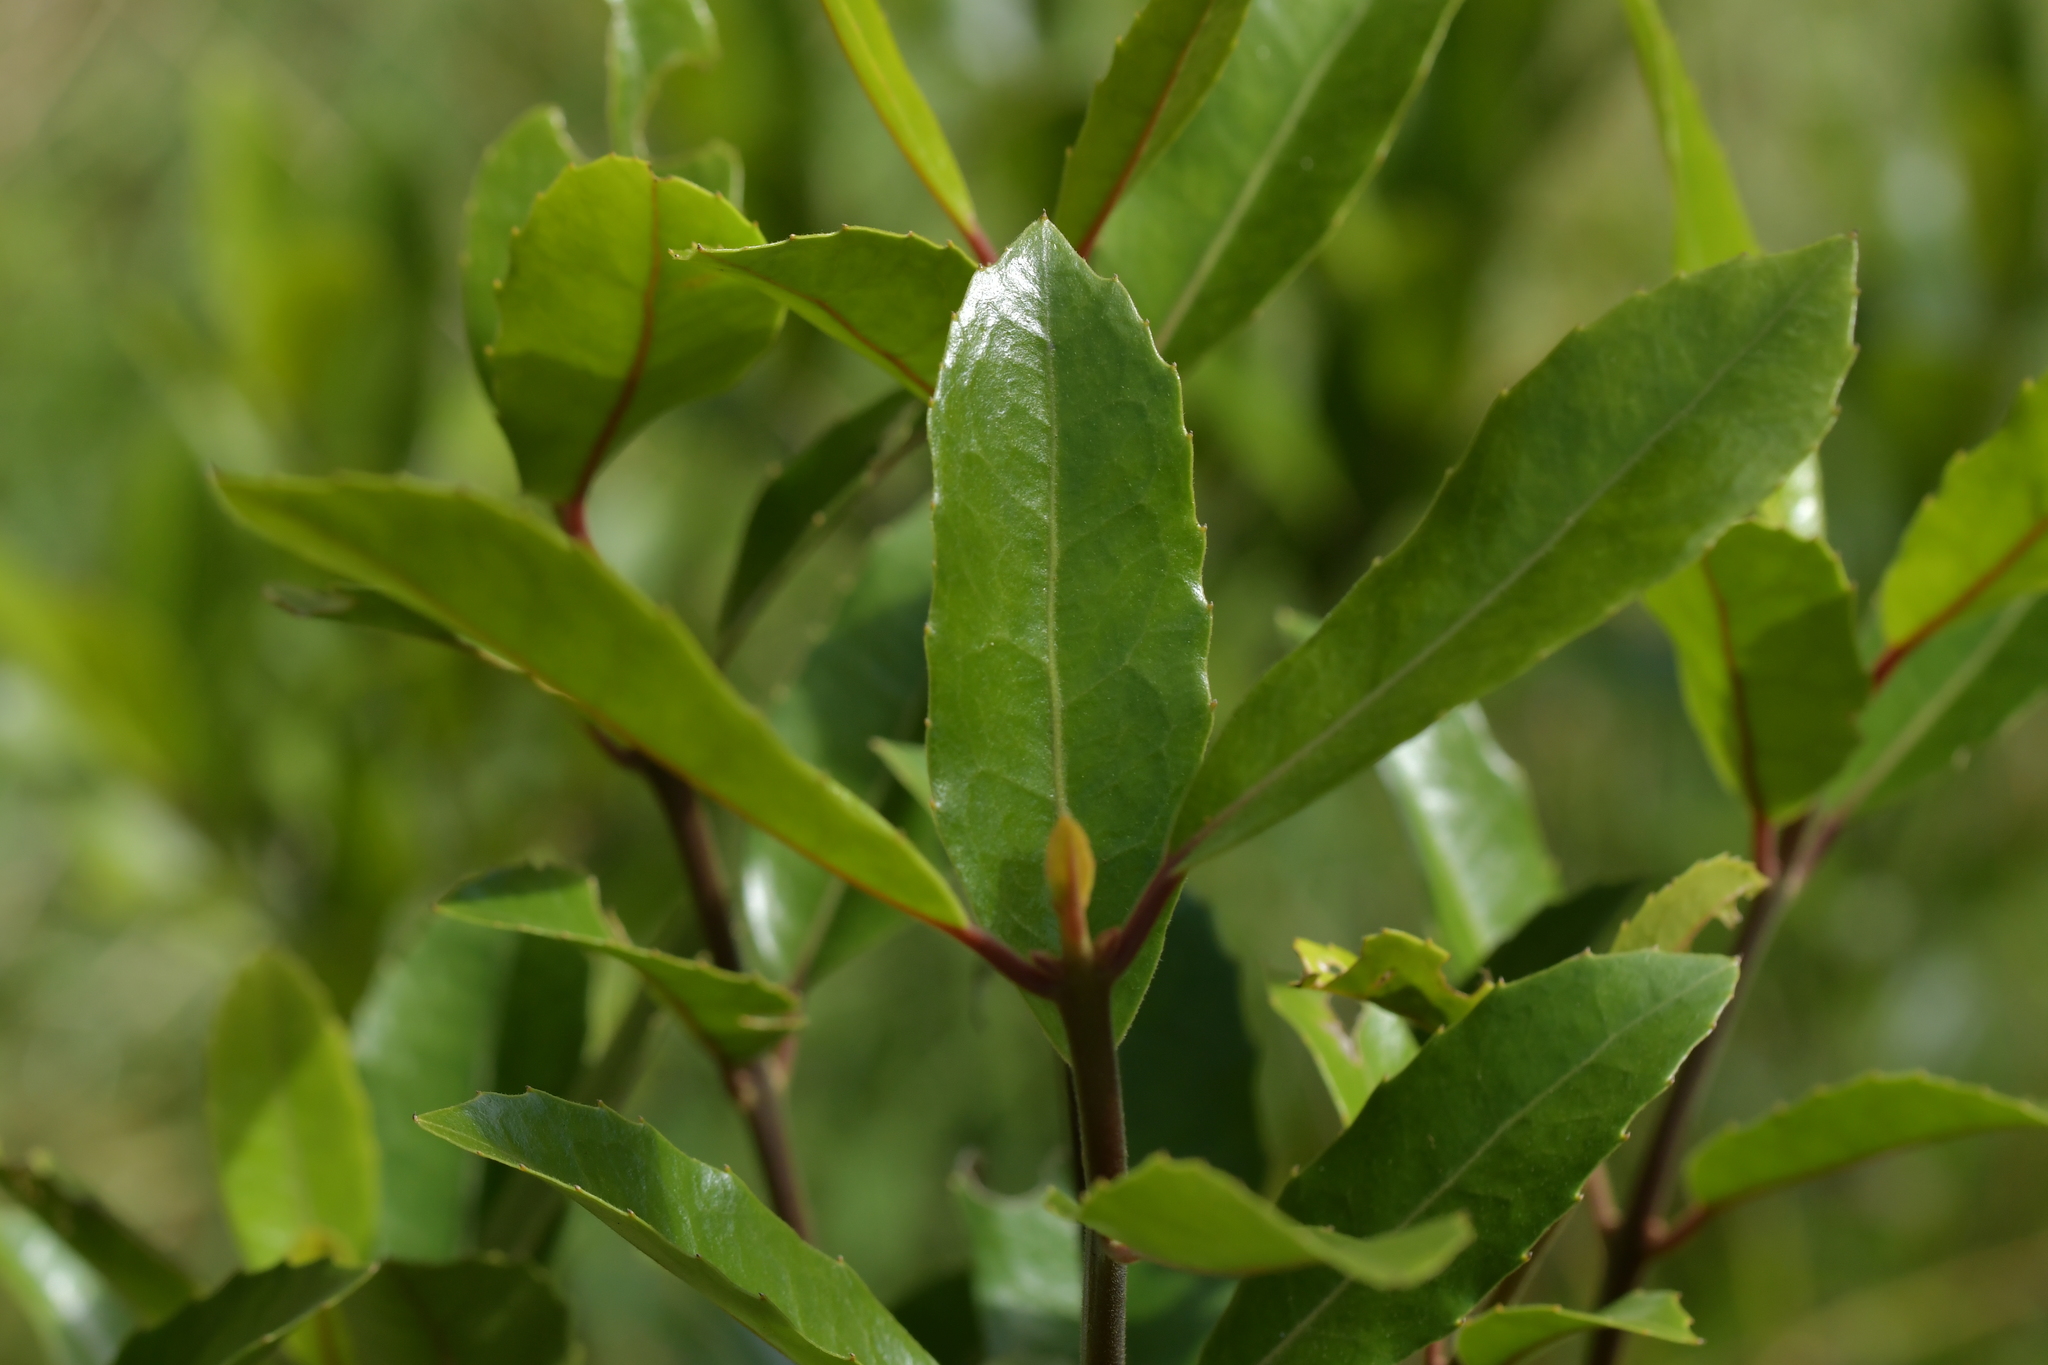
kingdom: Plantae
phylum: Tracheophyta
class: Magnoliopsida
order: Laurales
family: Monimiaceae
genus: Hedycarya
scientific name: Hedycarya arborea
